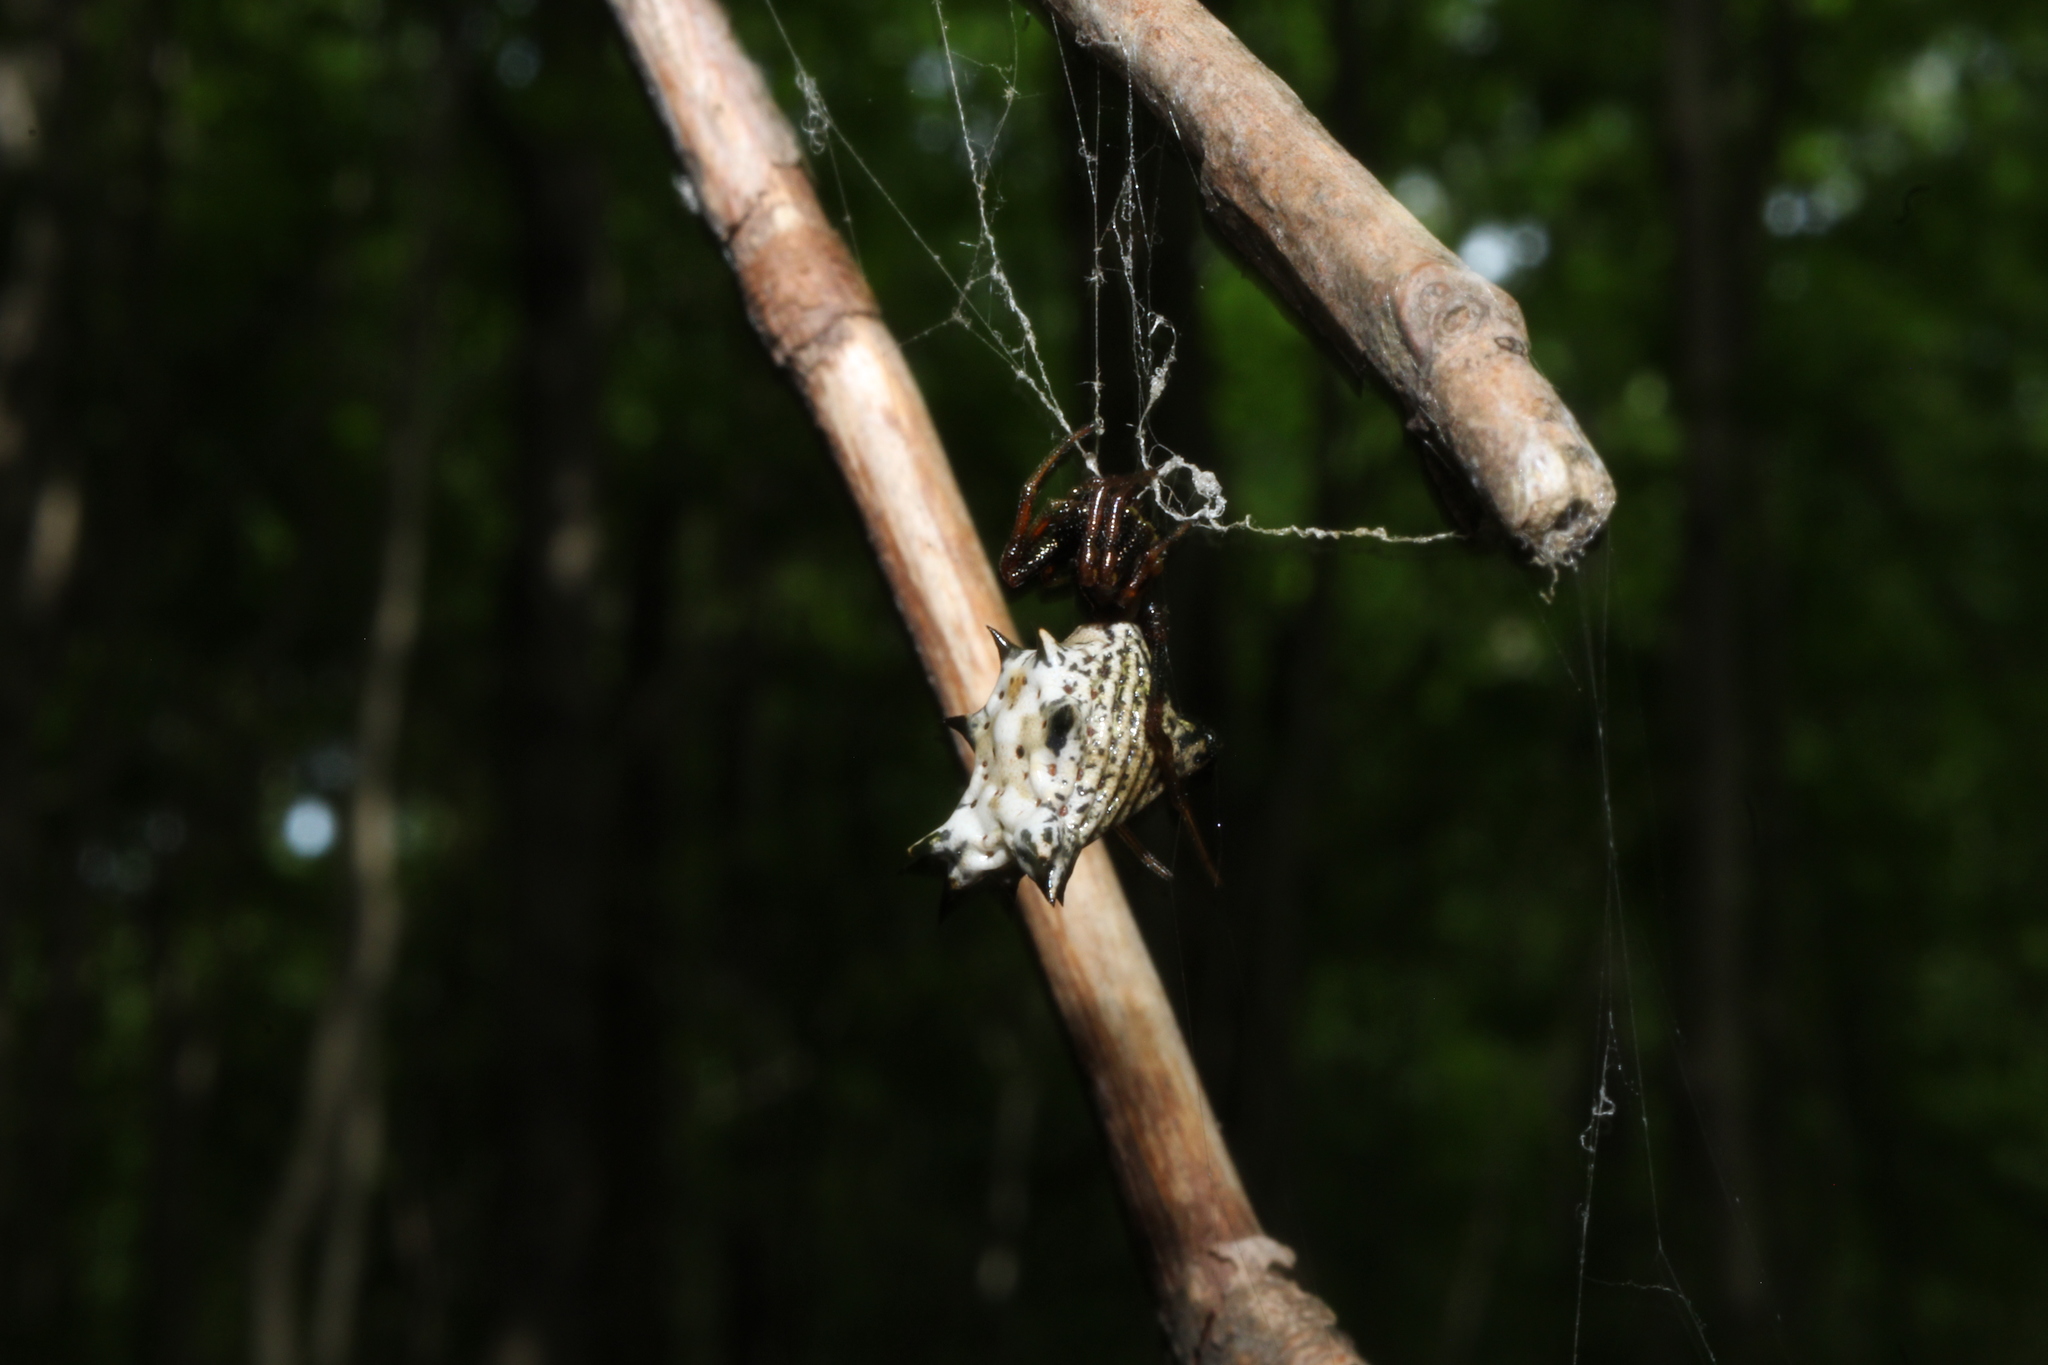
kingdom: Animalia
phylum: Arthropoda
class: Arachnida
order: Araneae
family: Araneidae
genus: Micrathena
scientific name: Micrathena gracilis
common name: Orb weavers
